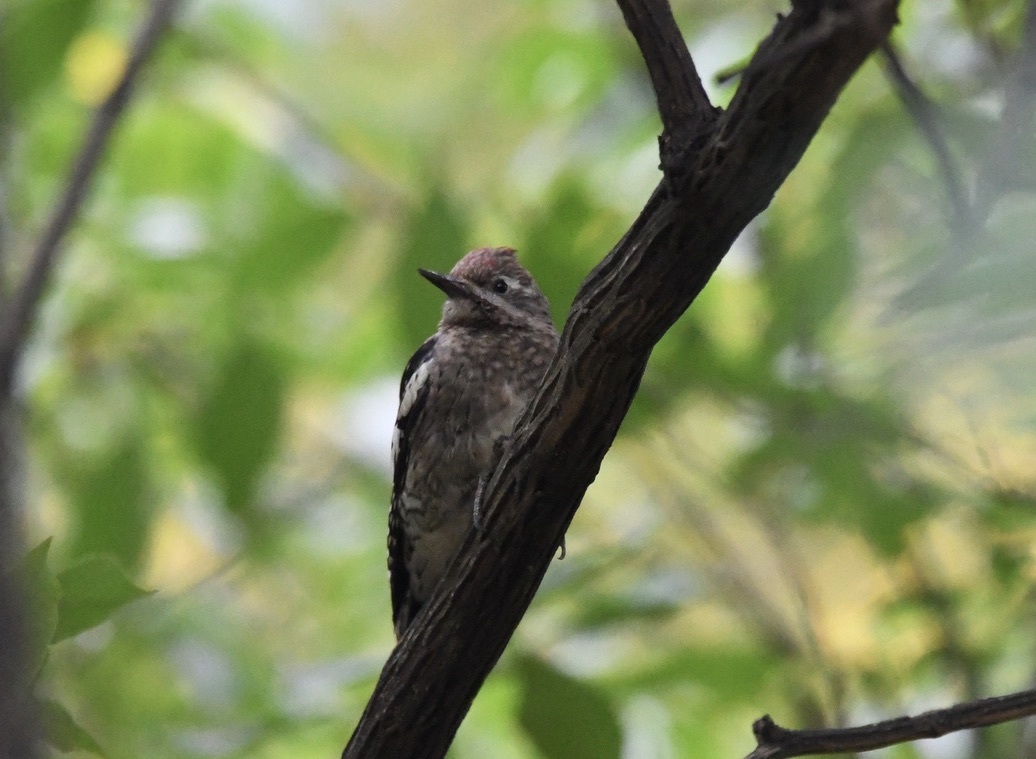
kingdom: Animalia
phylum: Chordata
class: Aves
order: Piciformes
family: Picidae
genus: Sphyrapicus
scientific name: Sphyrapicus varius
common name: Yellow-bellied sapsucker
